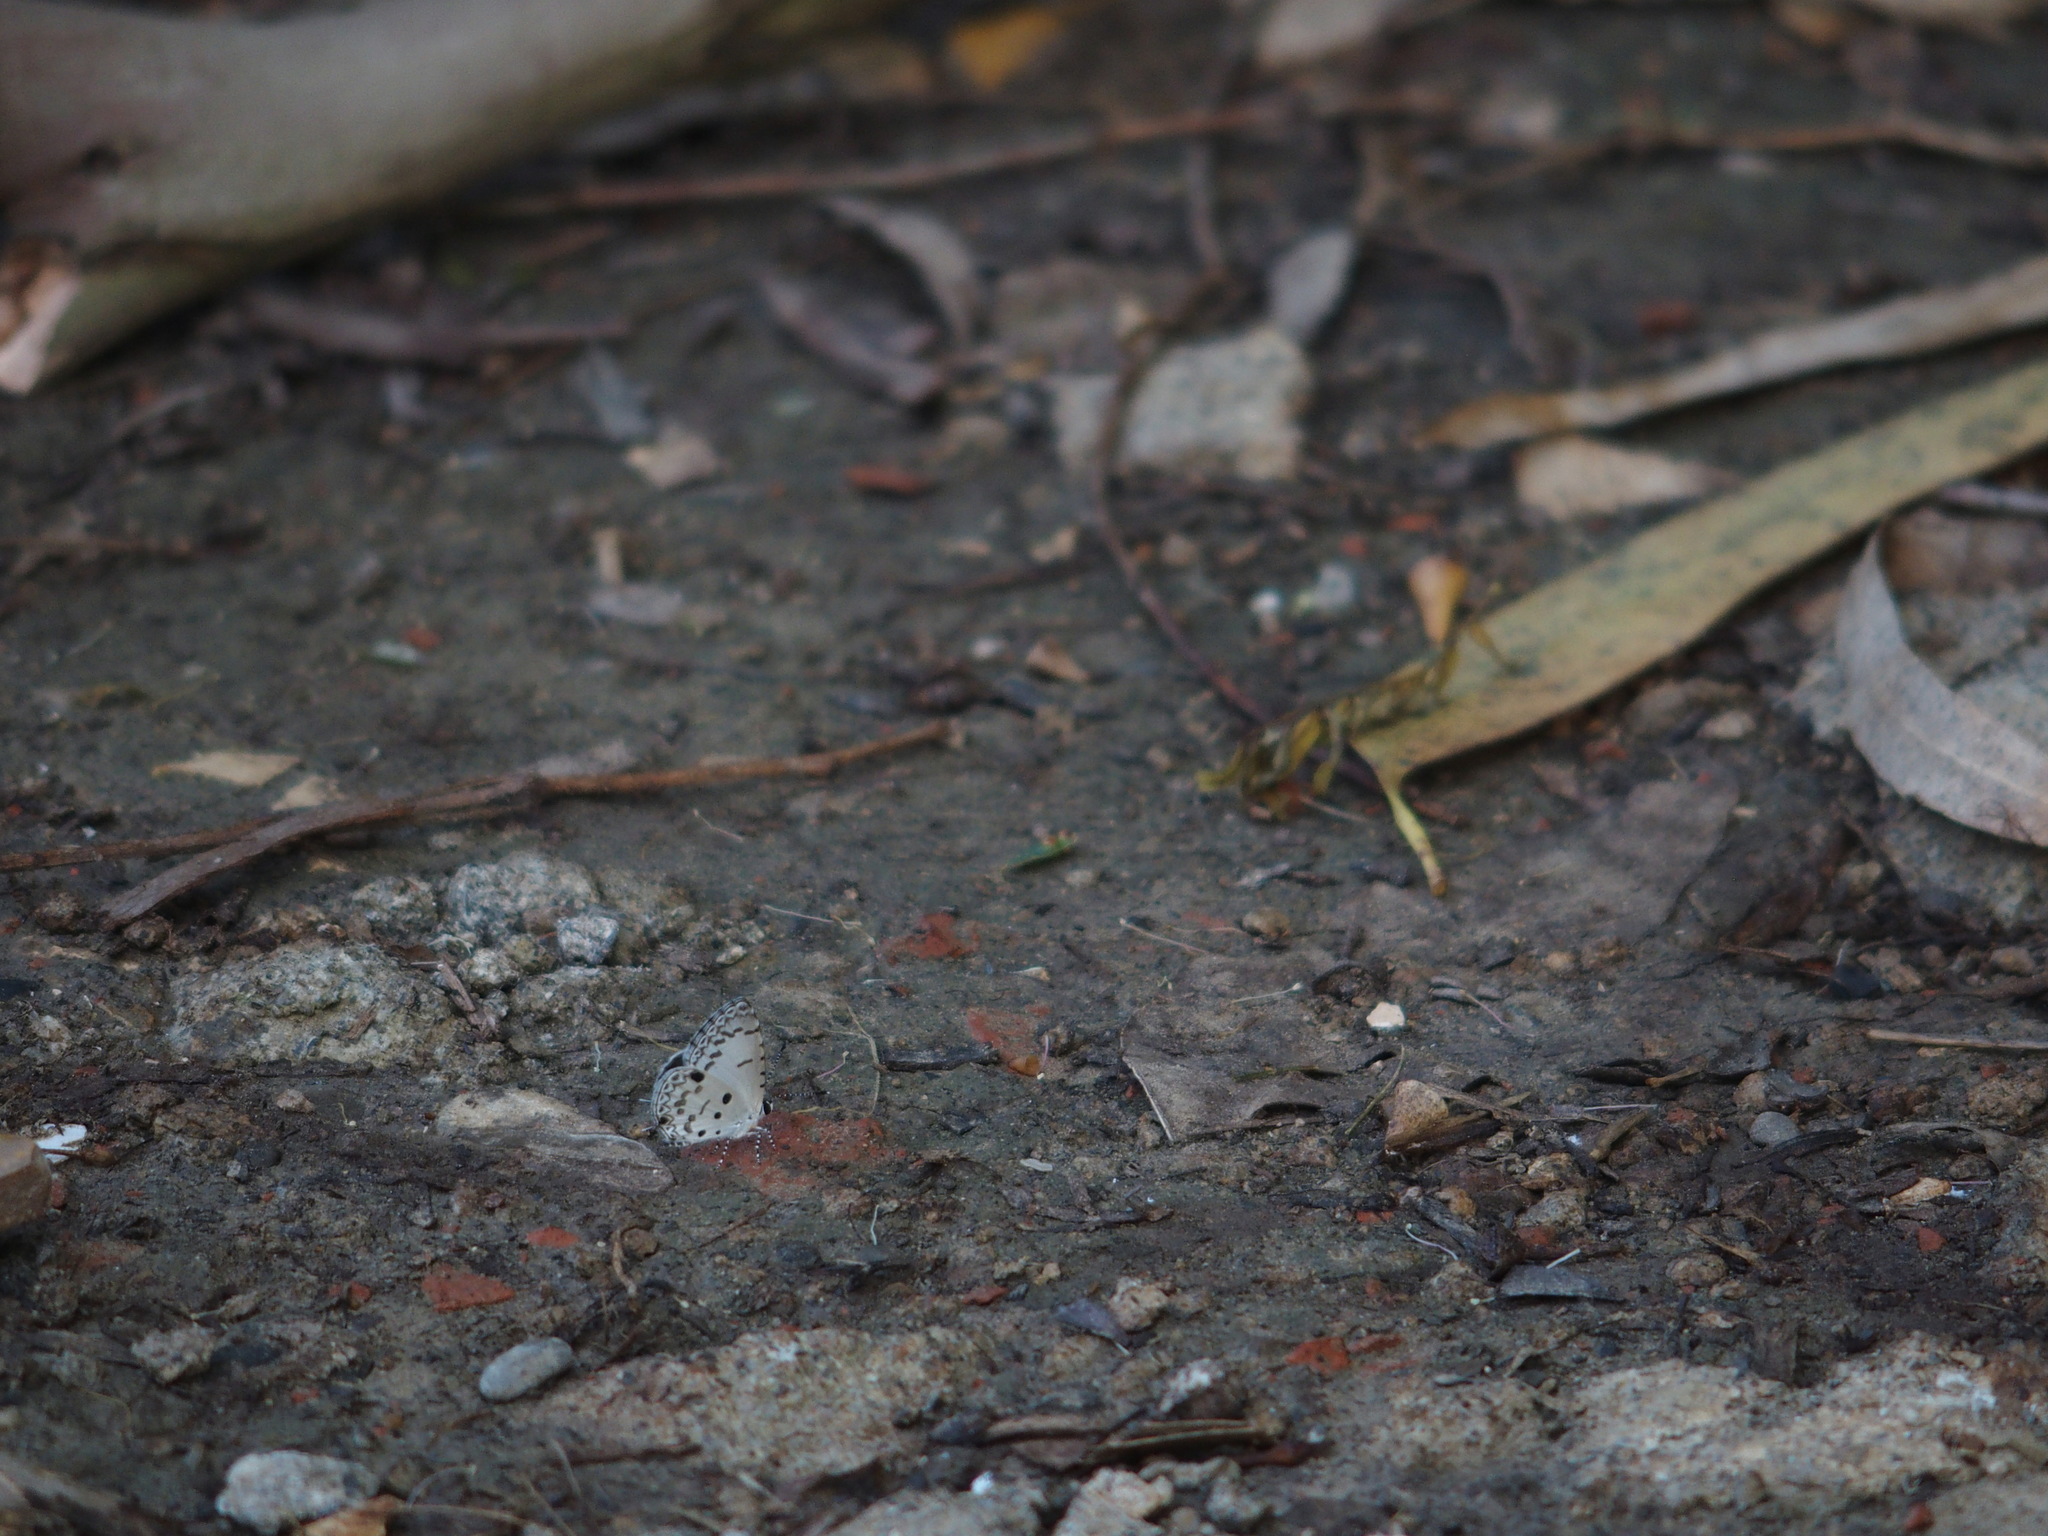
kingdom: Animalia
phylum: Arthropoda
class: Insecta
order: Lepidoptera
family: Lycaenidae
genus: Megisba
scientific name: Megisba malaya
